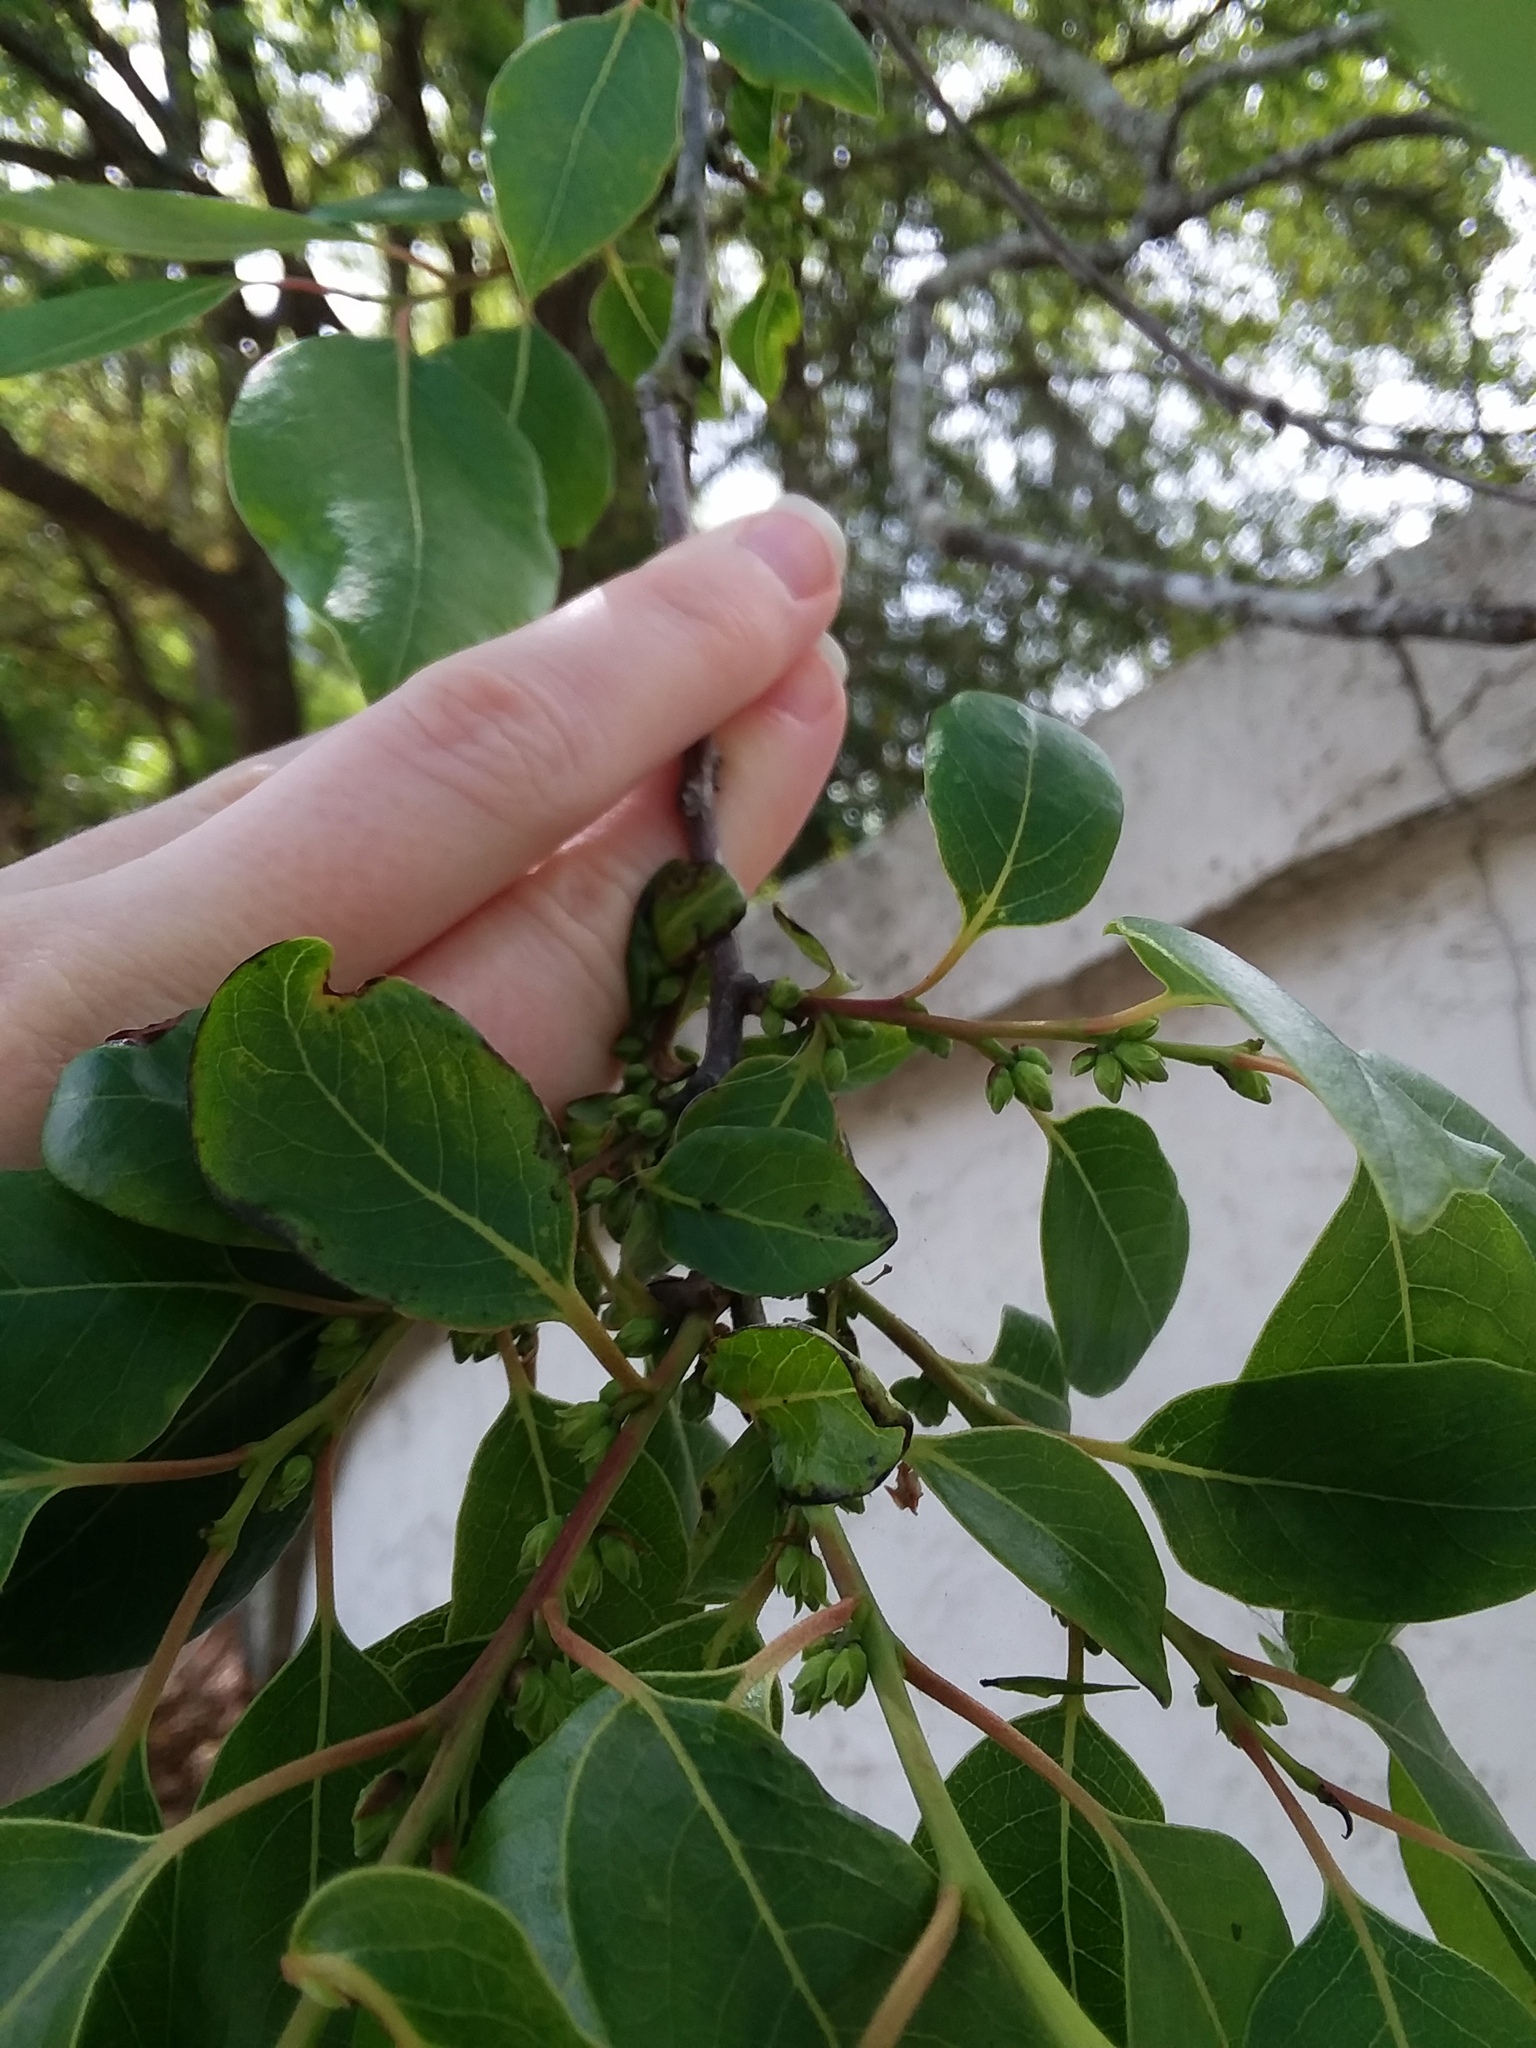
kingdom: Plantae
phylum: Tracheophyta
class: Magnoliopsida
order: Ericales
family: Ebenaceae
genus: Diospyros
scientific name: Diospyros virginiana
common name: Persimmon
